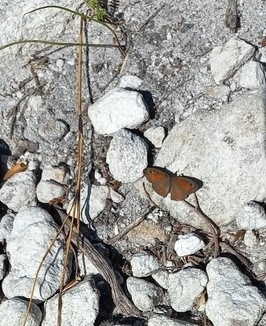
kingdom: Animalia
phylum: Arthropoda
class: Insecta
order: Lepidoptera
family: Nymphalidae
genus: Pseudonympha
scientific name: Pseudonympha detecta
